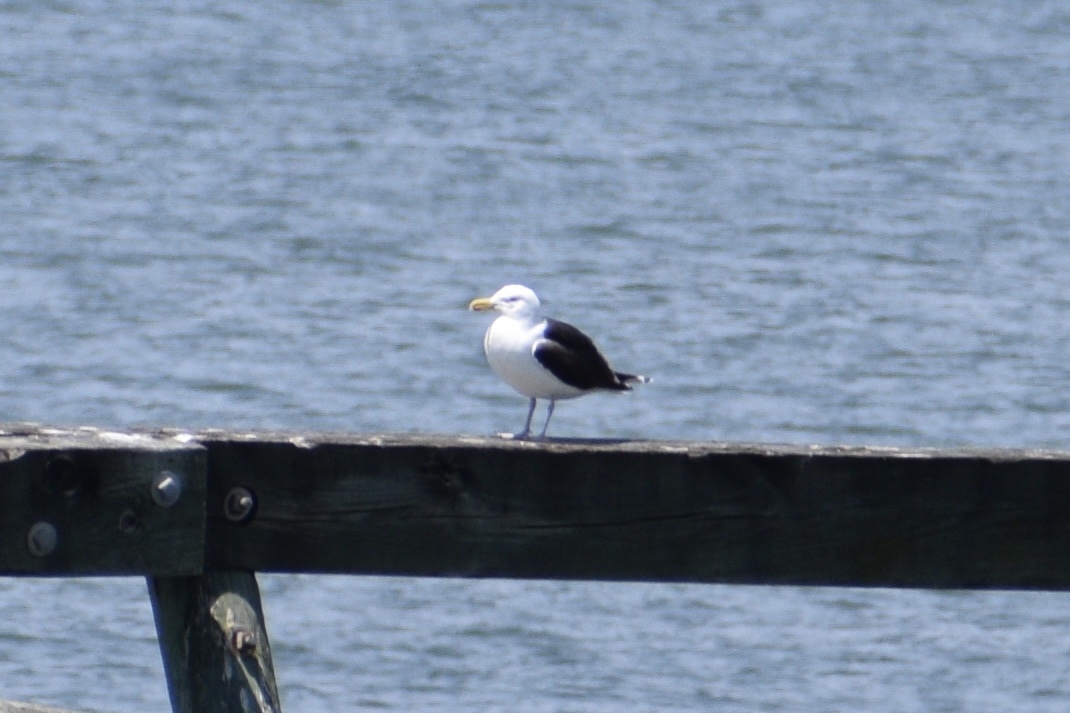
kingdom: Animalia
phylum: Chordata
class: Aves
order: Charadriiformes
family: Laridae
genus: Larus
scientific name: Larus marinus
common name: Great black-backed gull
